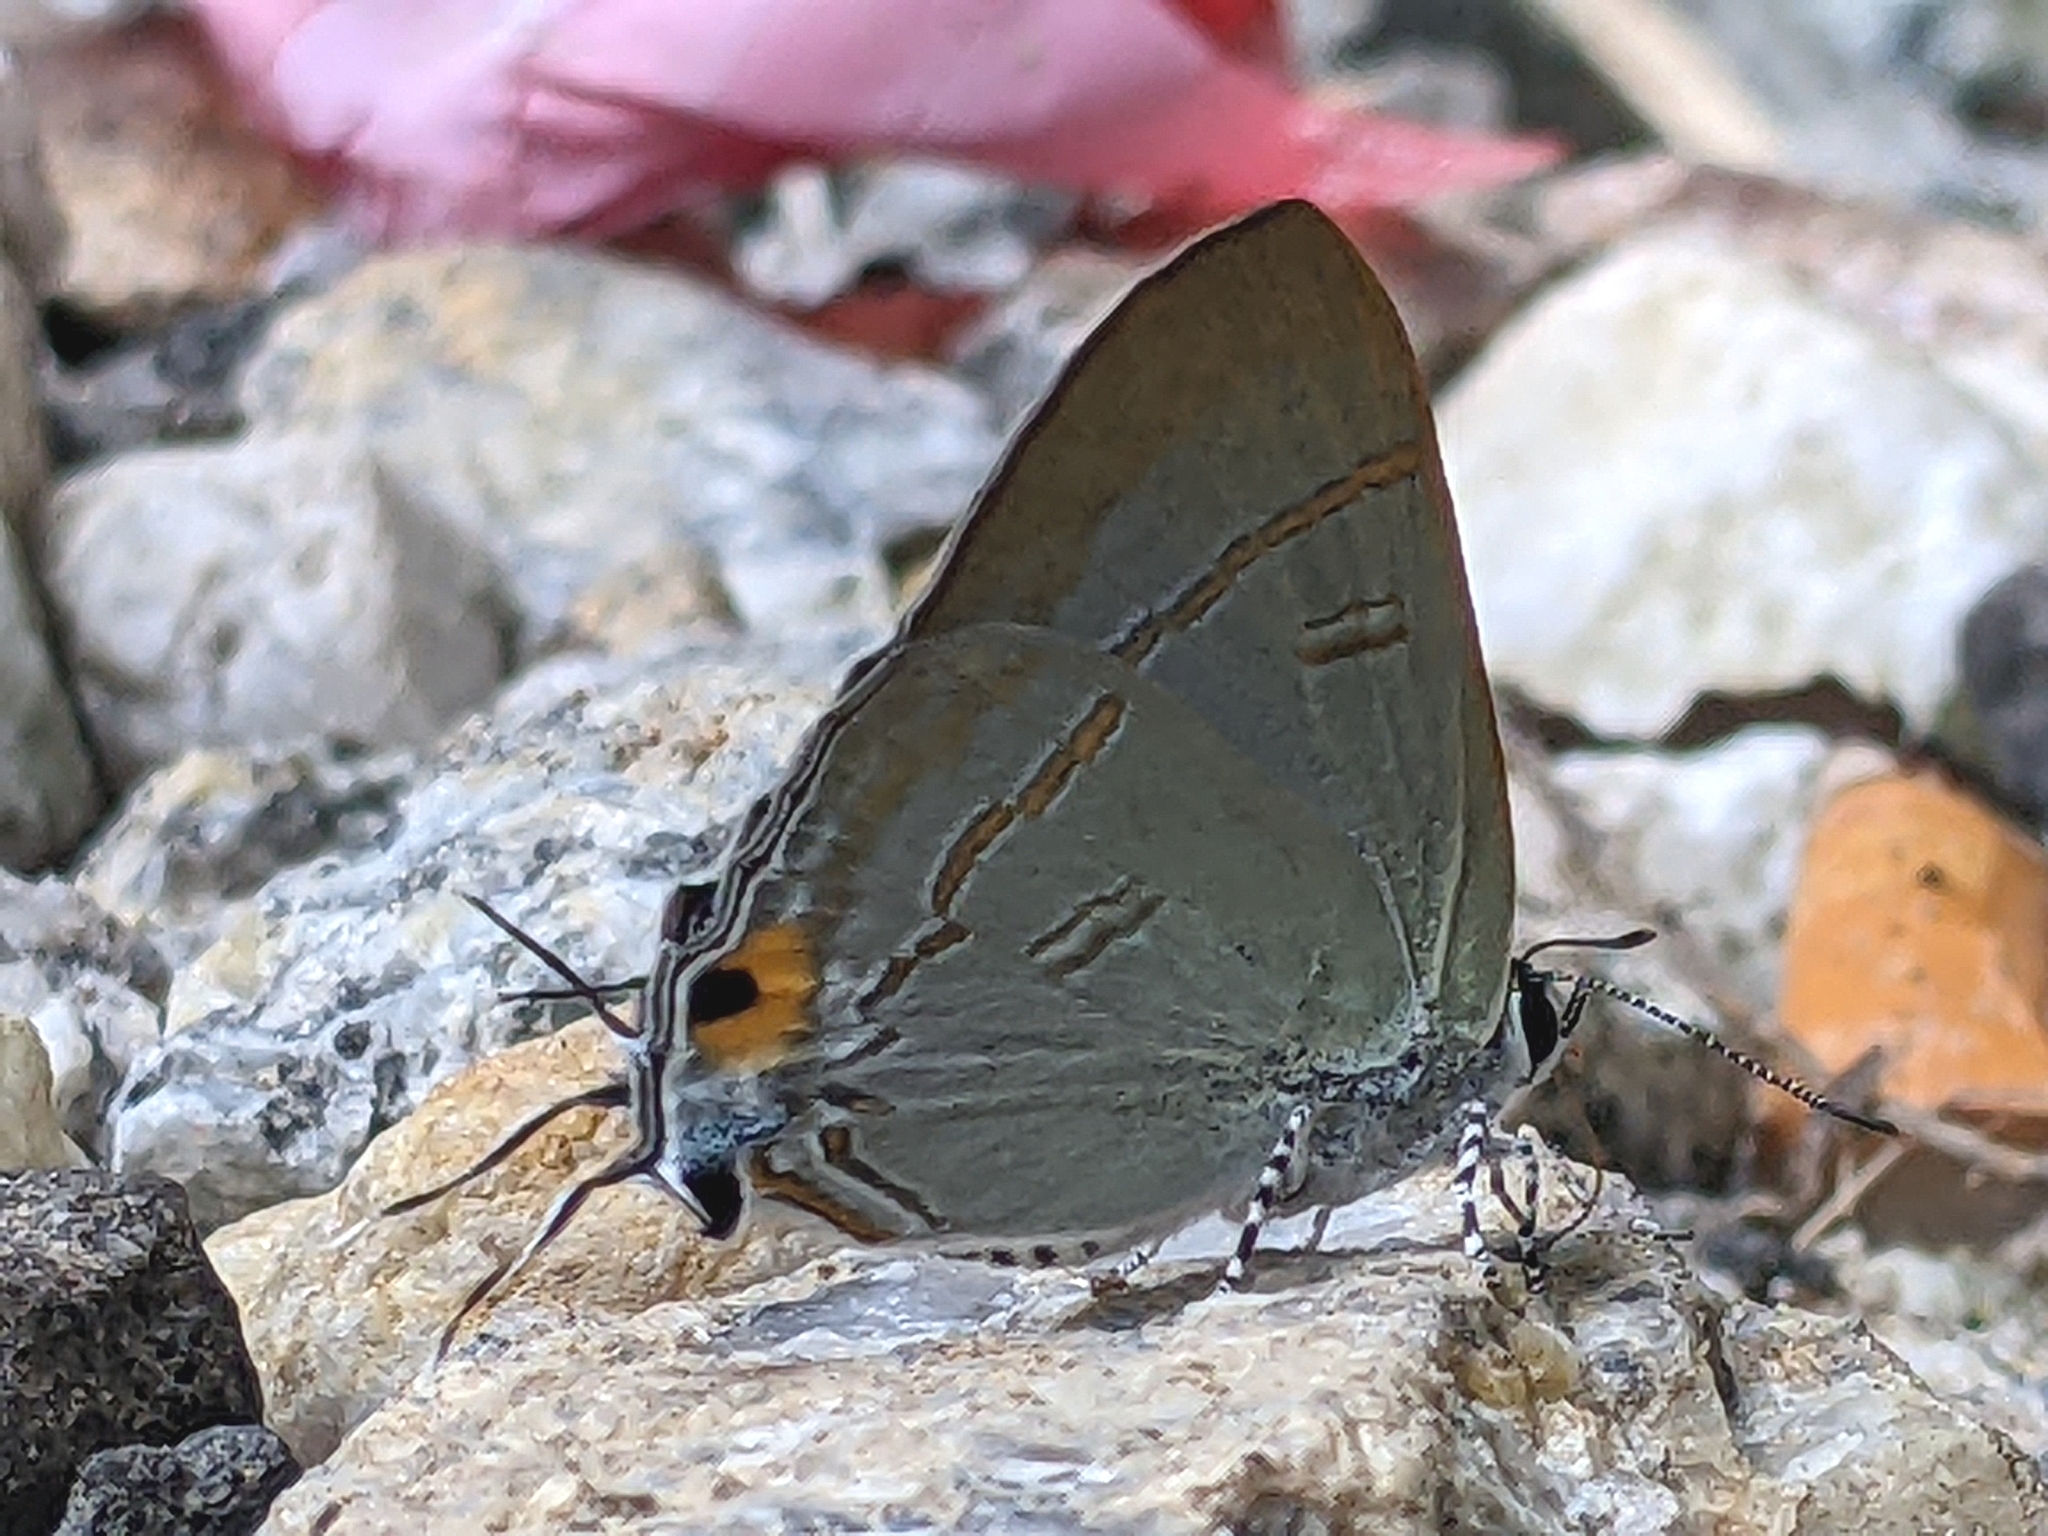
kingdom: Animalia
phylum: Arthropoda
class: Insecta
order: Lepidoptera
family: Lycaenidae
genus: Hypolycaena
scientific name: Hypolycaena erylus
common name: Common tit
